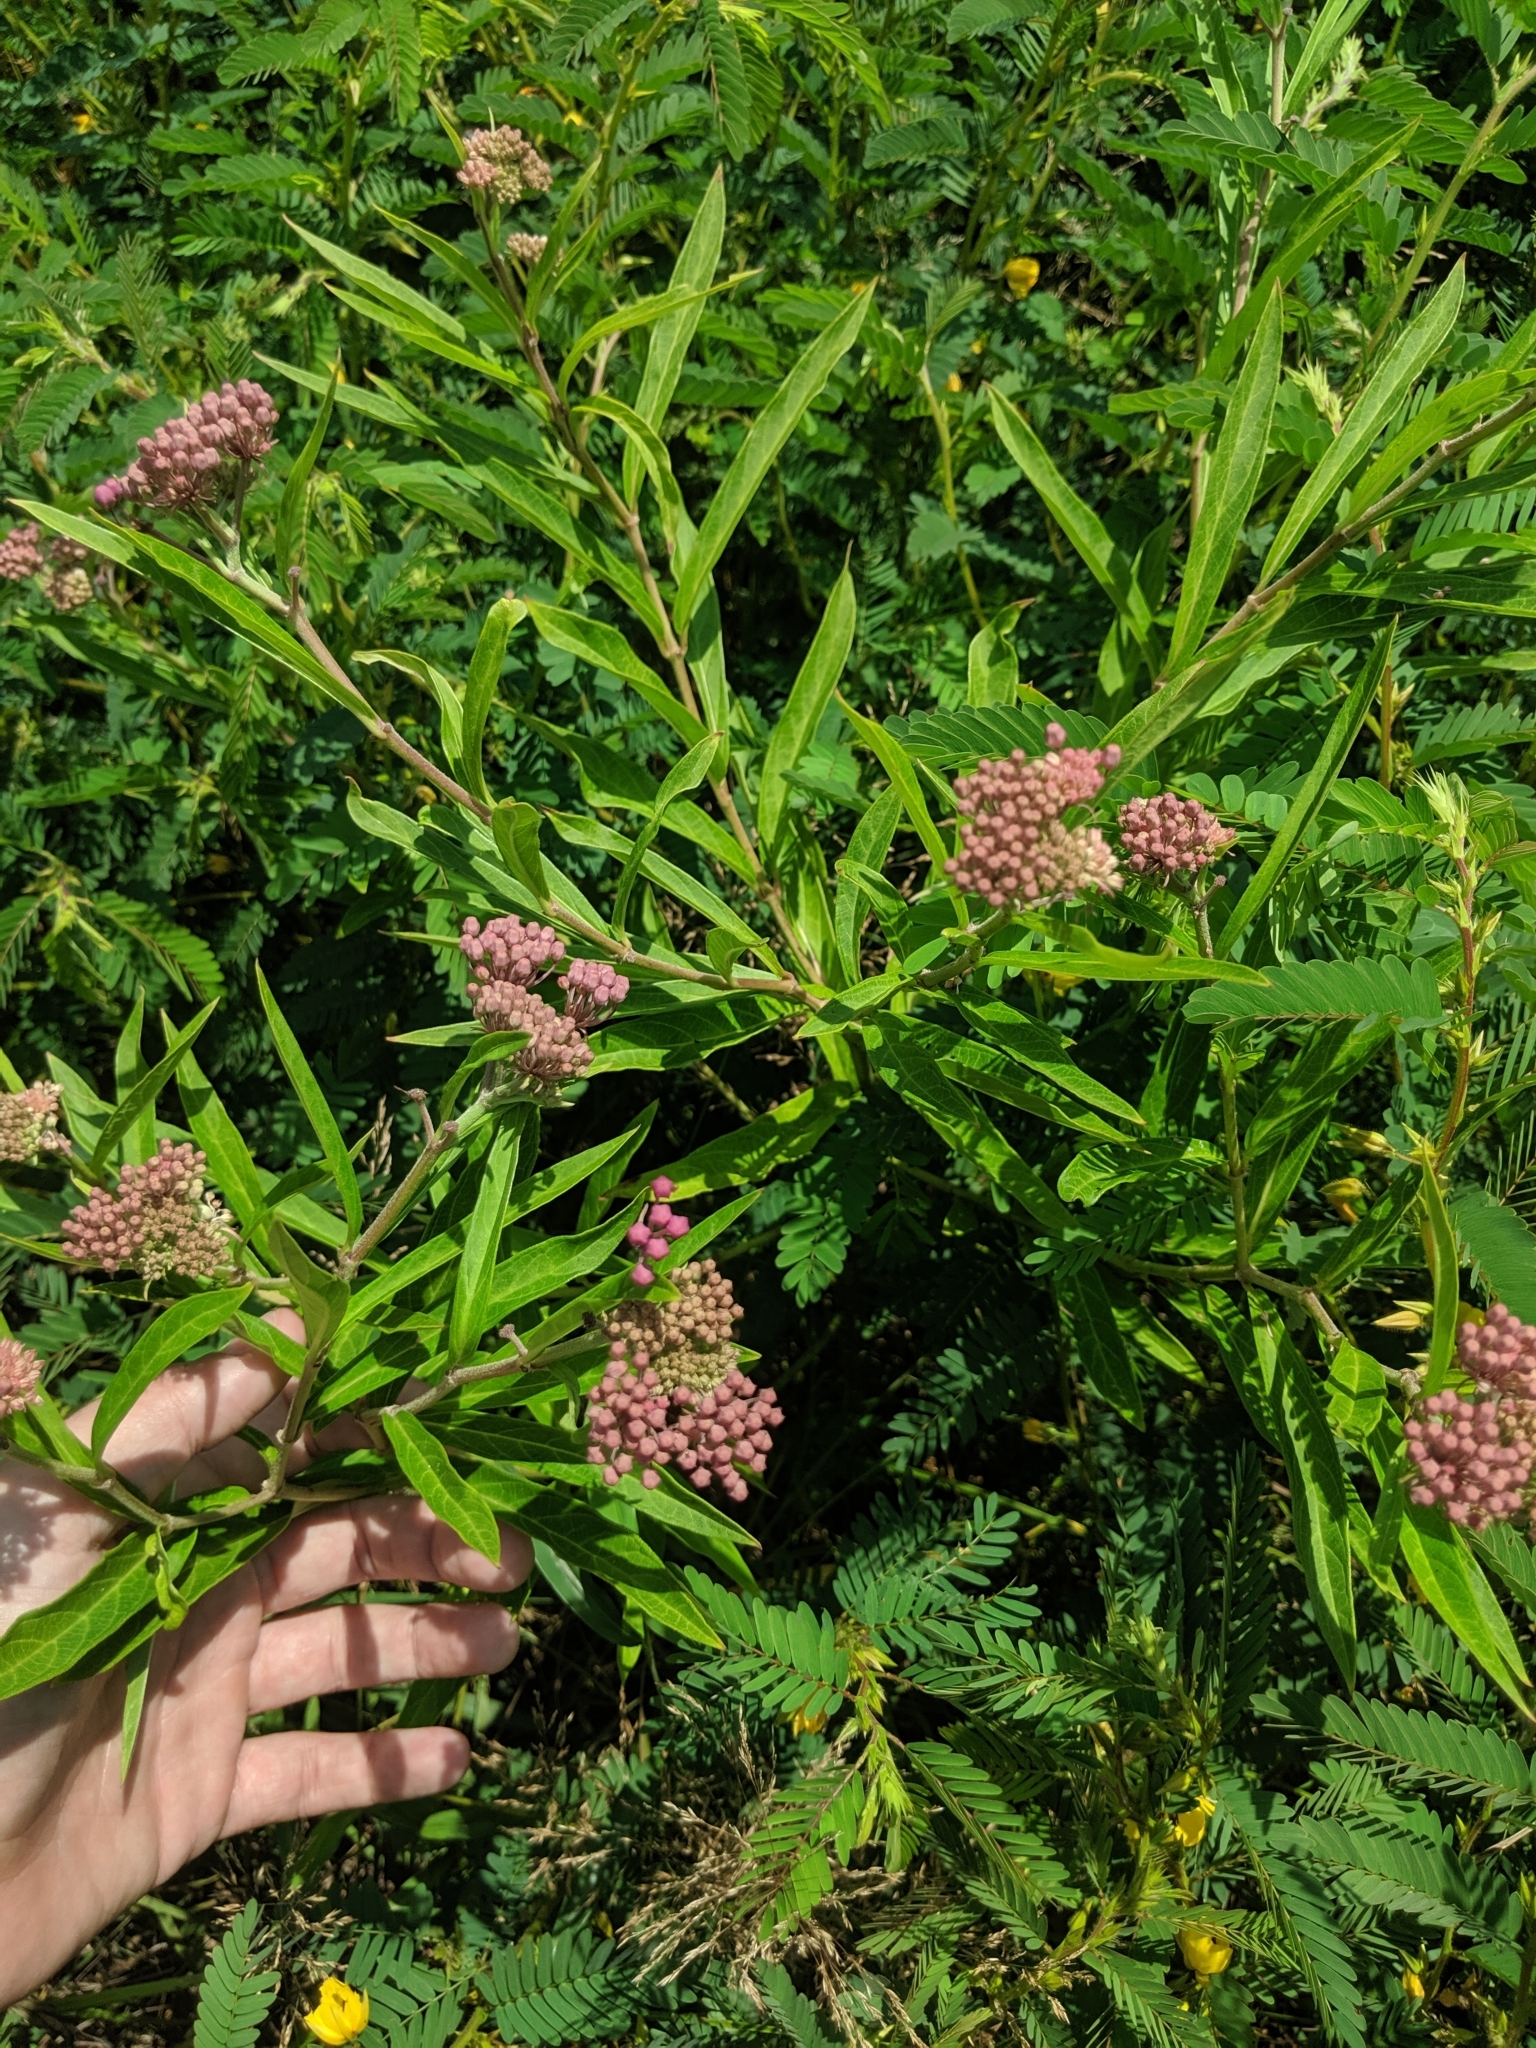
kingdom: Plantae
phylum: Tracheophyta
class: Magnoliopsida
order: Gentianales
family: Apocynaceae
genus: Asclepias
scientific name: Asclepias incarnata
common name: Swamp milkweed
